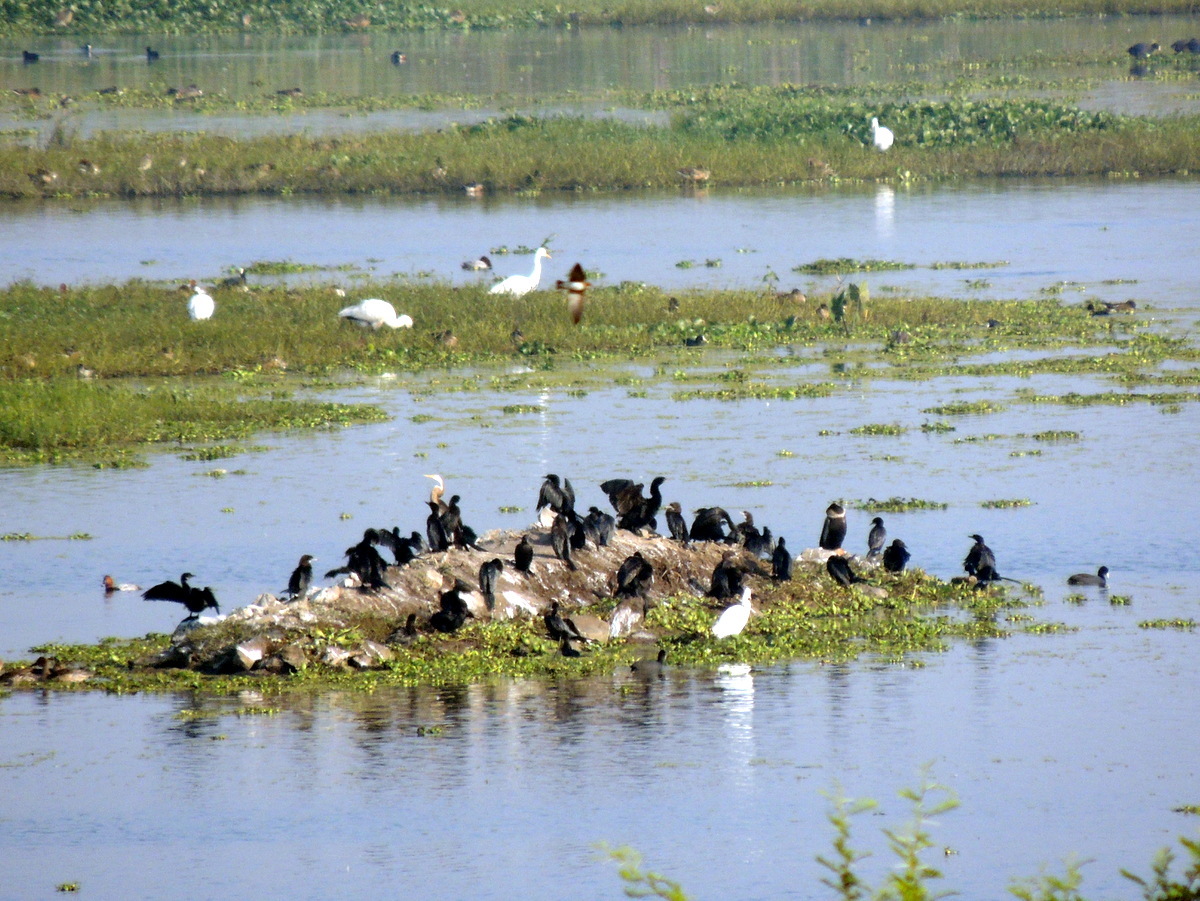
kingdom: Animalia
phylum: Chordata
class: Aves
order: Suliformes
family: Anhingidae
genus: Anhinga
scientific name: Anhinga melanogaster
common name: Oriental darter
